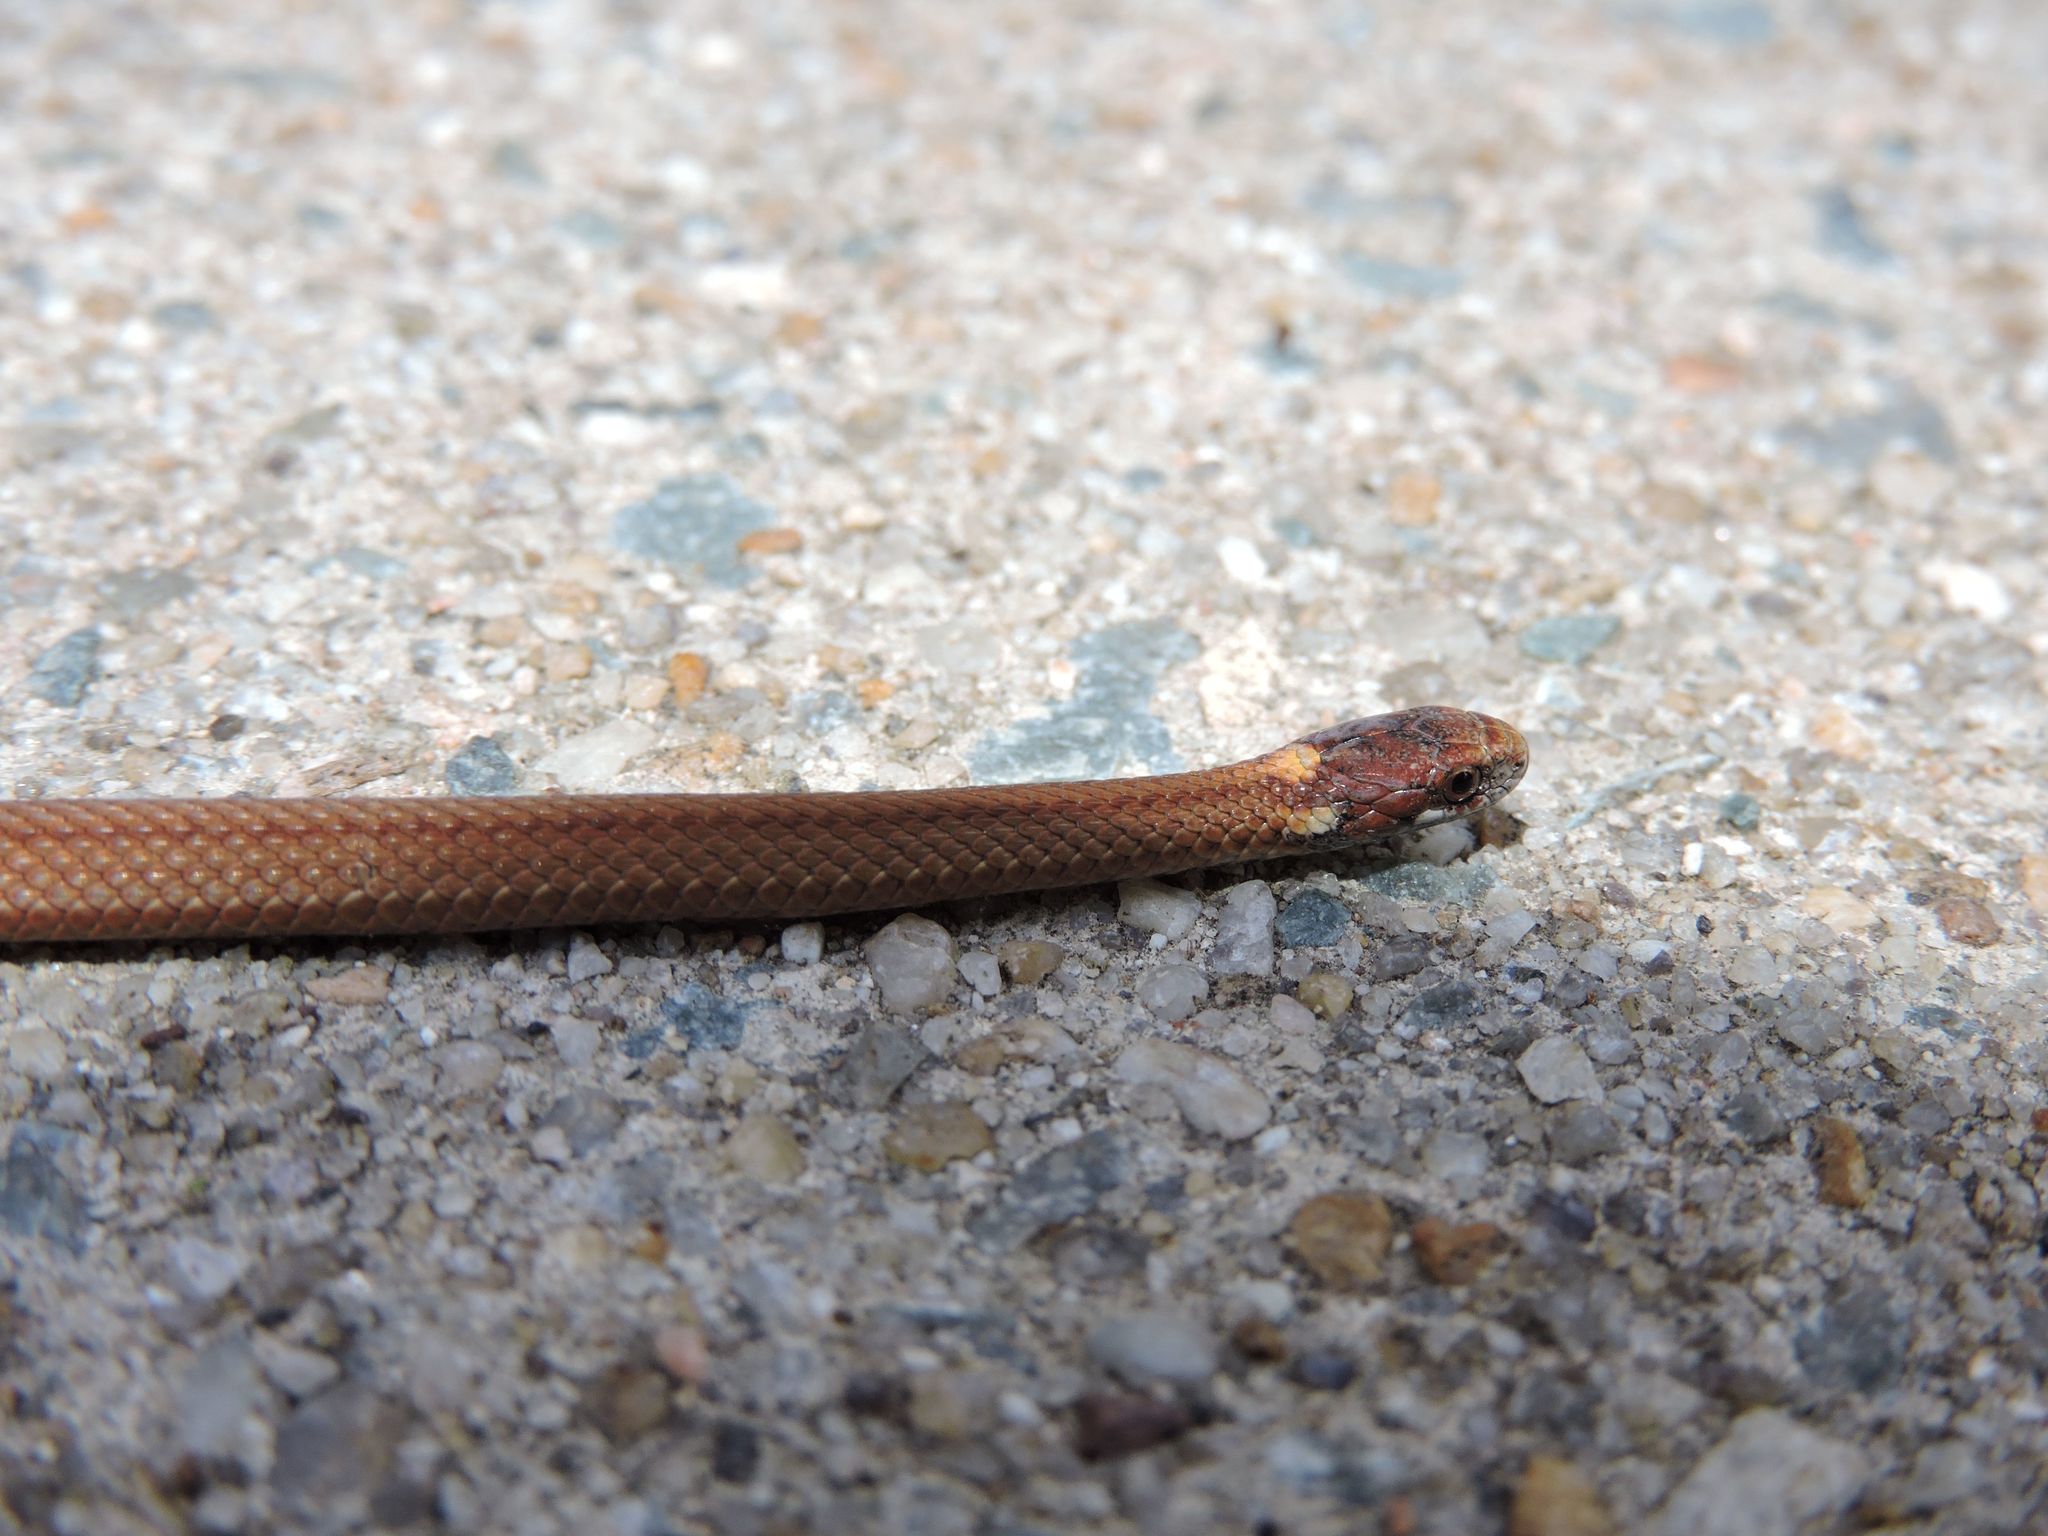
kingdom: Animalia
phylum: Chordata
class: Squamata
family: Colubridae
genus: Storeria
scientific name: Storeria occipitomaculata
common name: Redbelly snake
